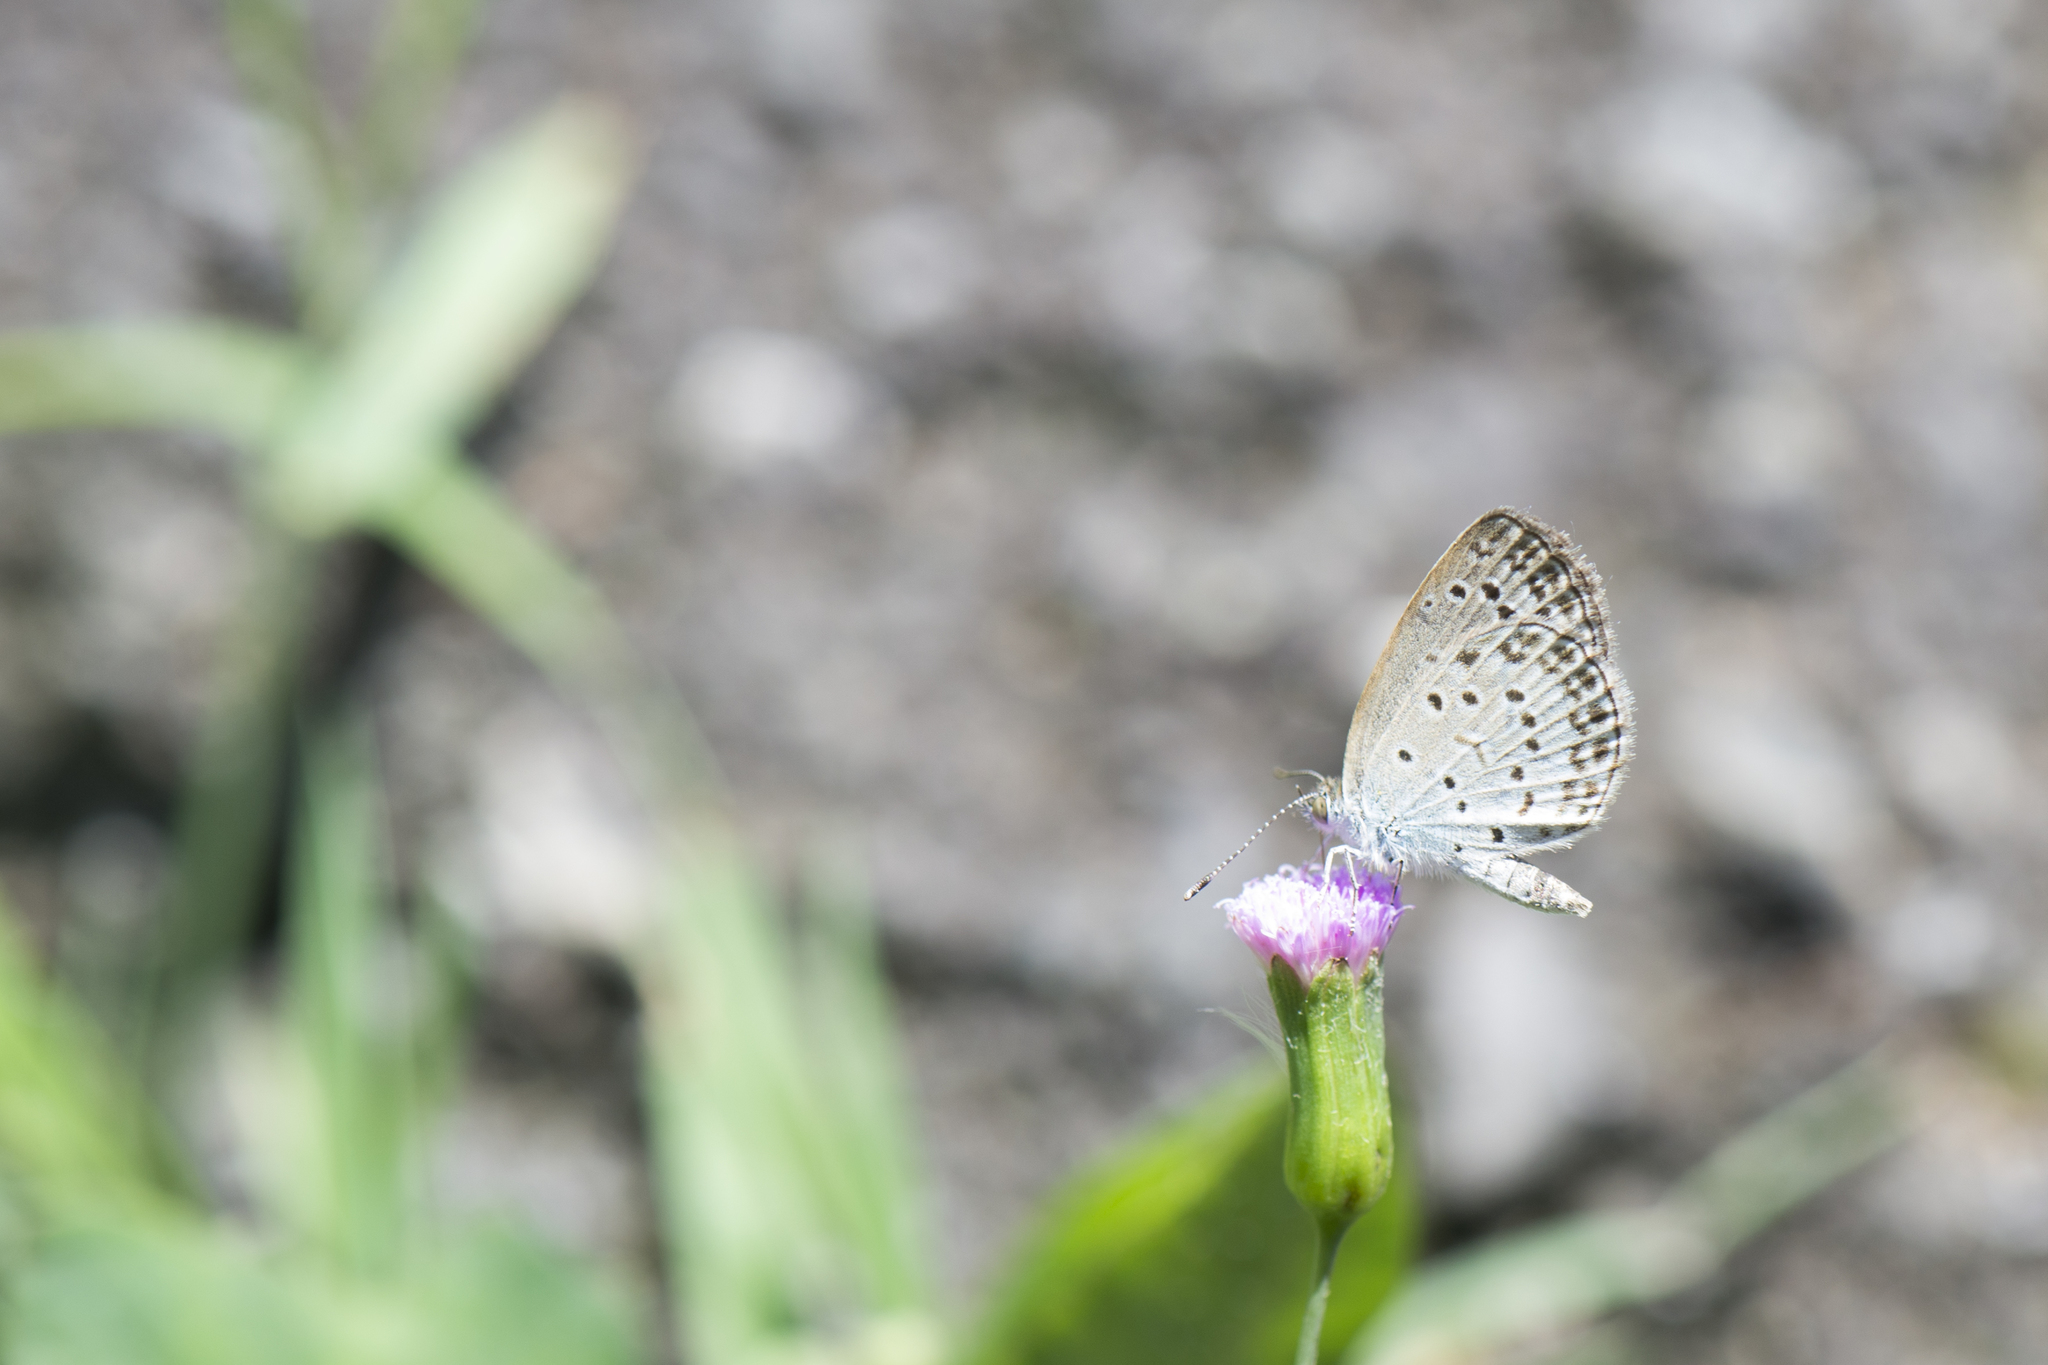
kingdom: Animalia
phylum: Arthropoda
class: Insecta
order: Lepidoptera
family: Lycaenidae
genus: Pseudozizeeria
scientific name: Pseudozizeeria maha
